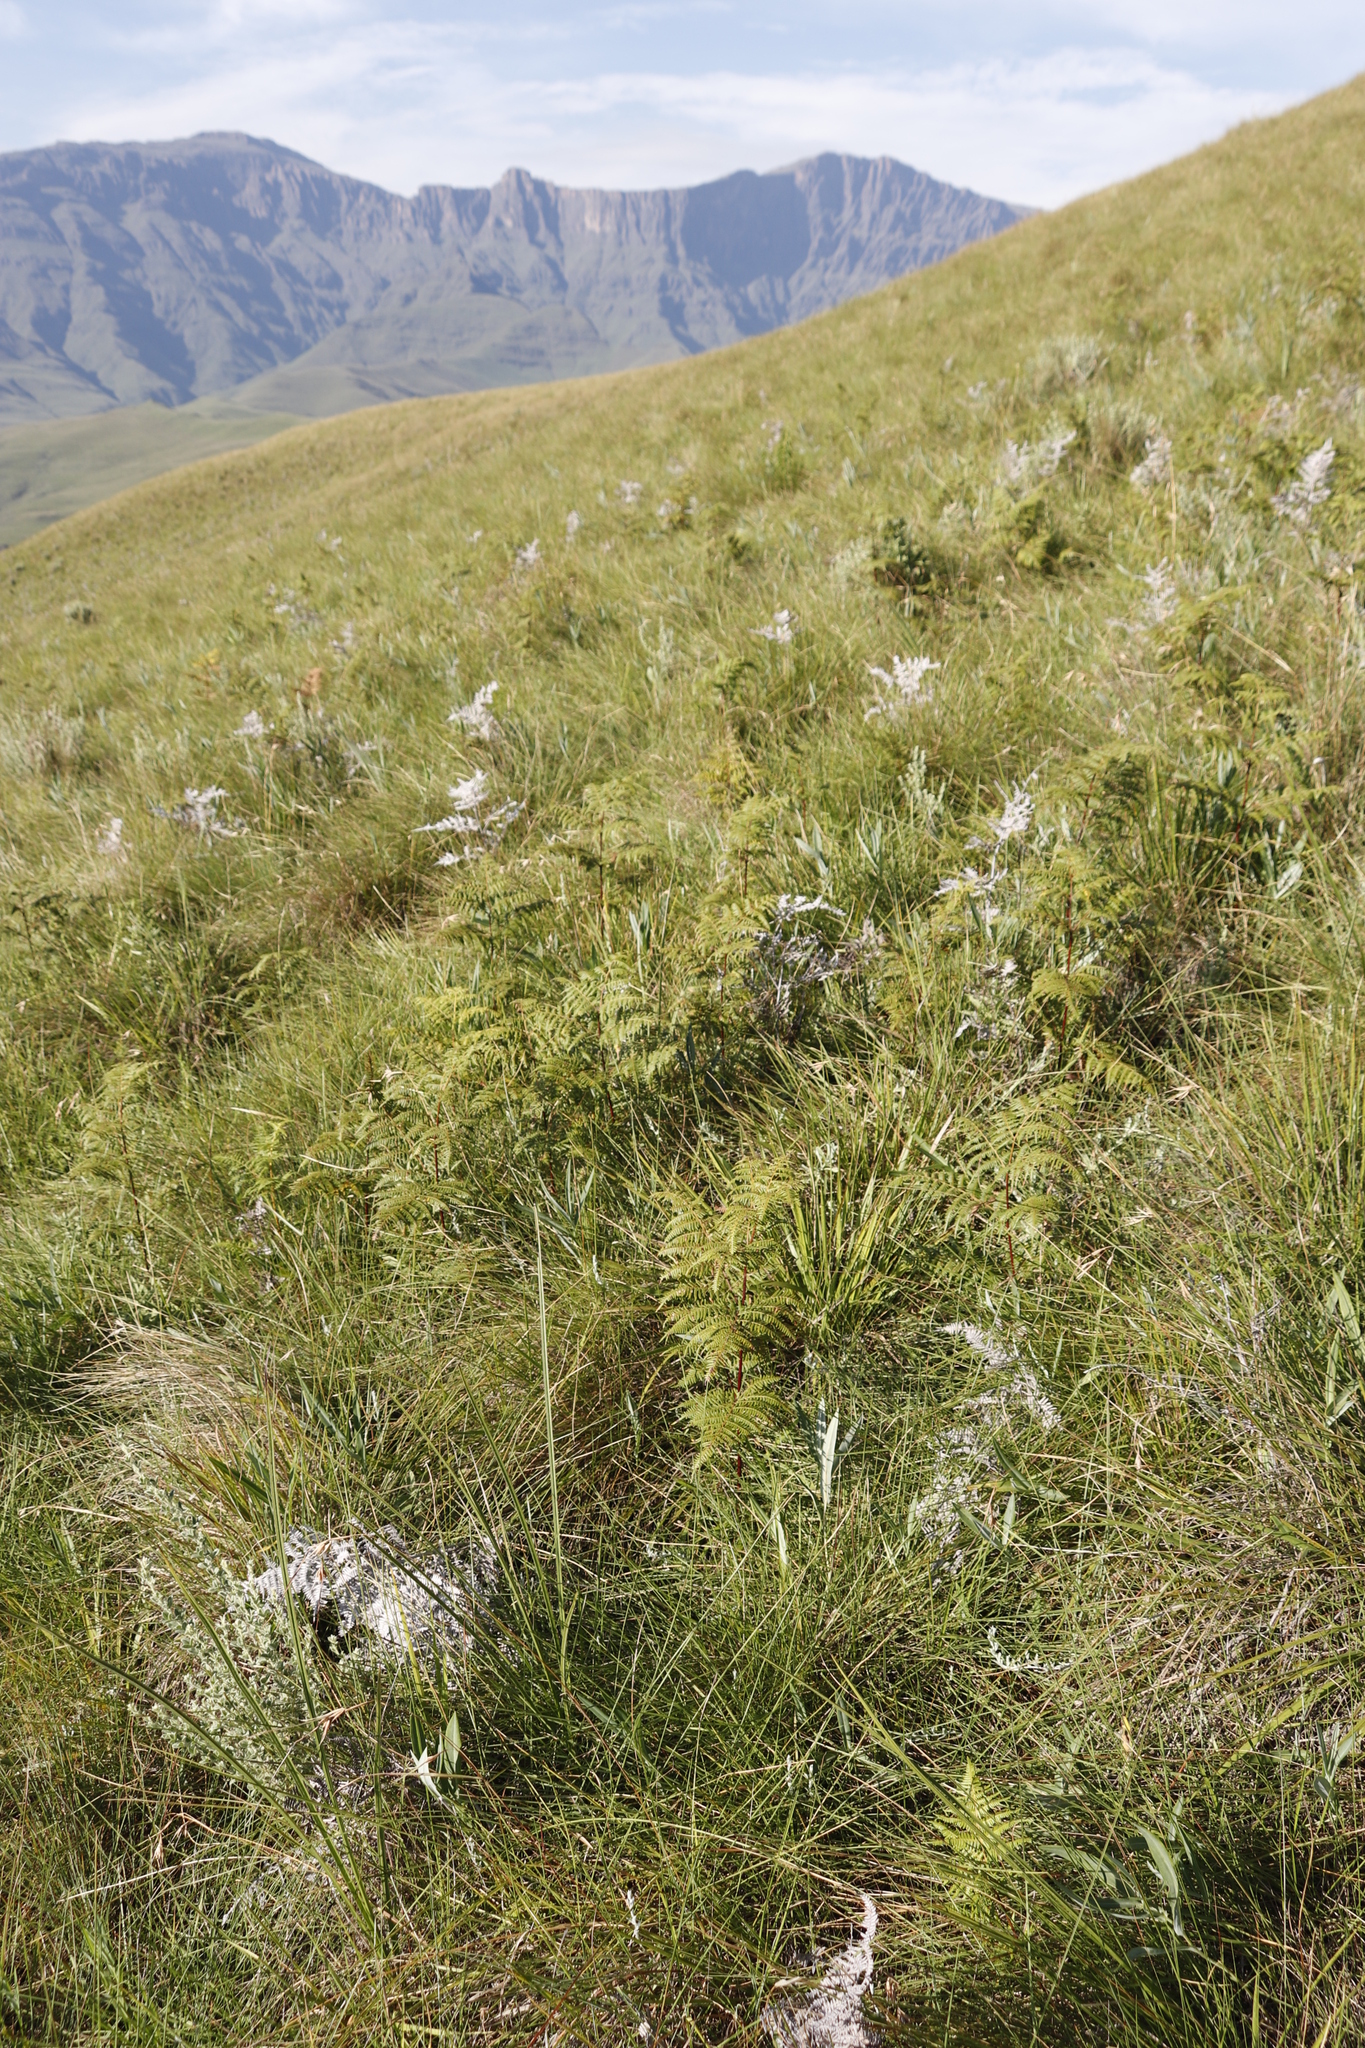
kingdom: Plantae
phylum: Tracheophyta
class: Polypodiopsida
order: Polypodiales
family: Dennstaedtiaceae
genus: Pteridium
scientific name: Pteridium aquilinum
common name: Bracken
